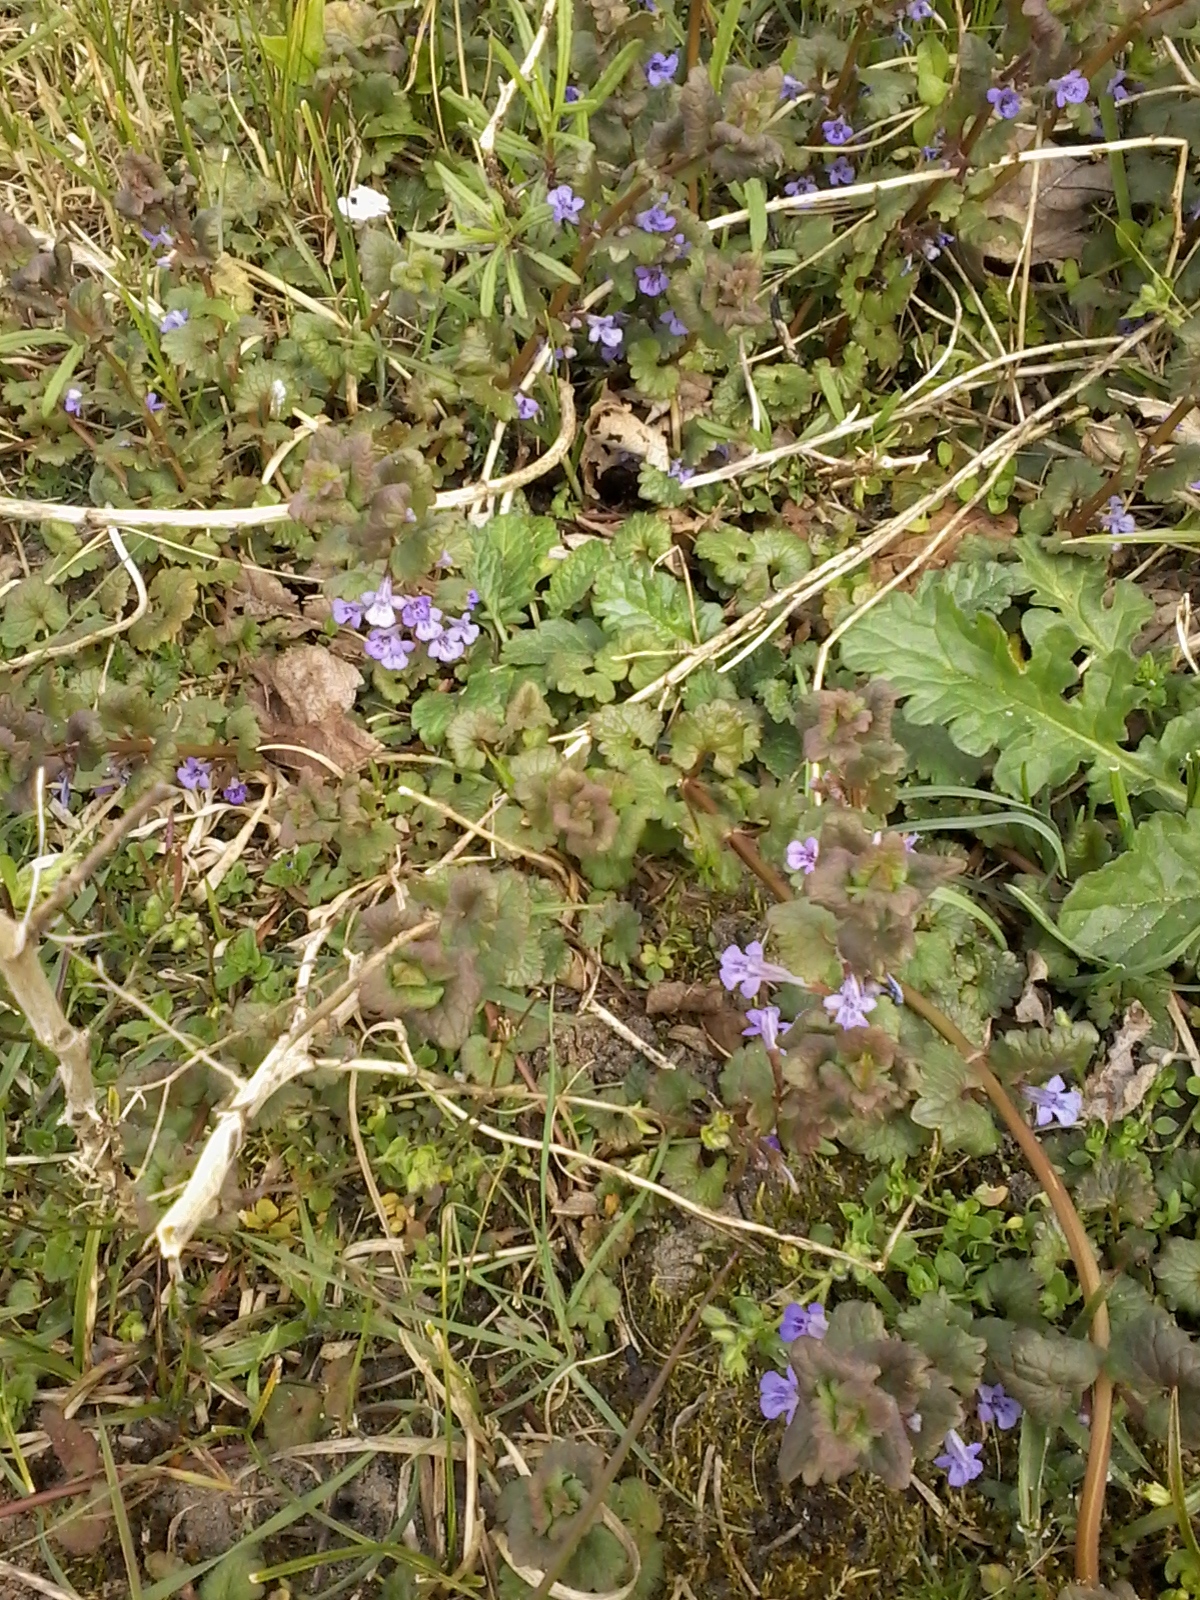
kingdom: Plantae
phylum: Tracheophyta
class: Magnoliopsida
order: Lamiales
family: Lamiaceae
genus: Glechoma
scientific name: Glechoma hederacea
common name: Ground ivy
